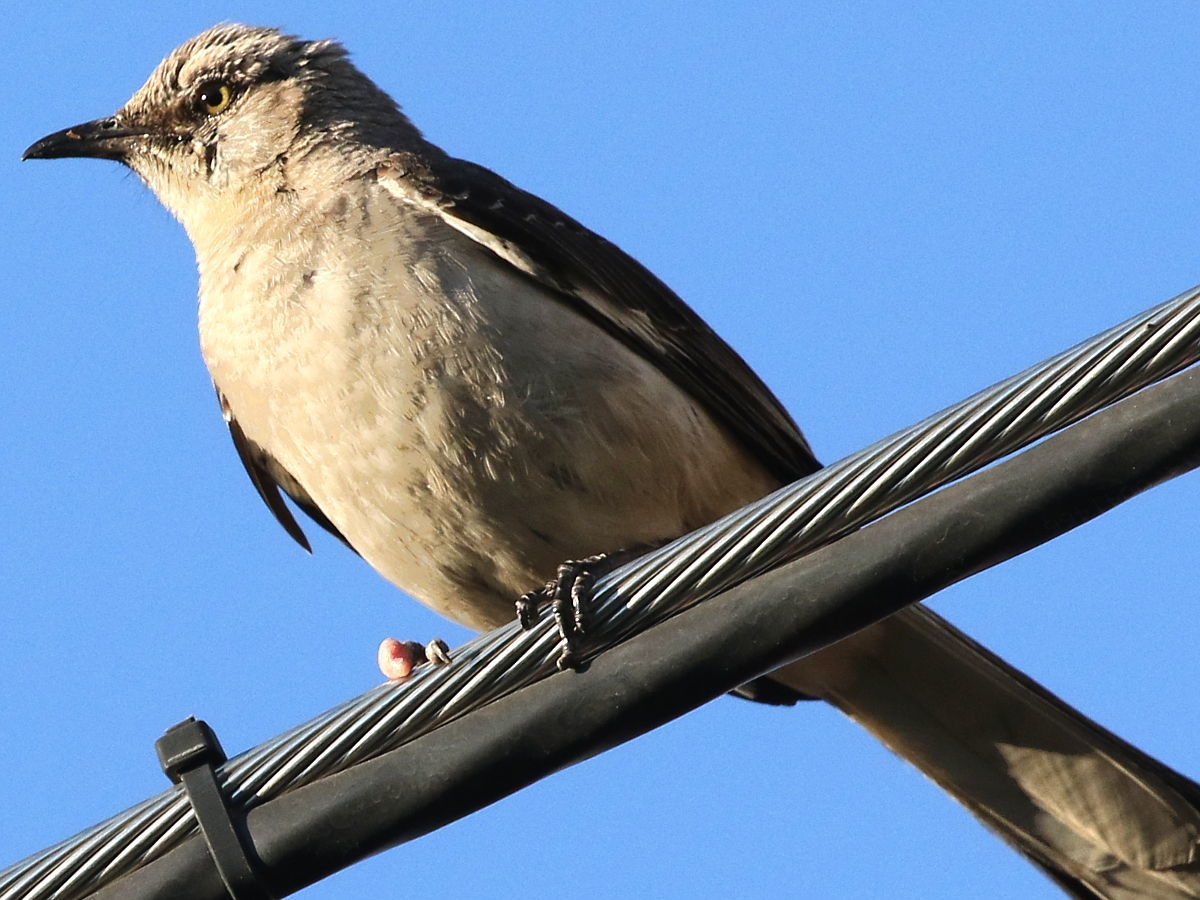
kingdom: Animalia
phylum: Chordata
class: Aves
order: Passeriformes
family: Mimidae
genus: Mimus
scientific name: Mimus polyglottos
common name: Northern mockingbird
